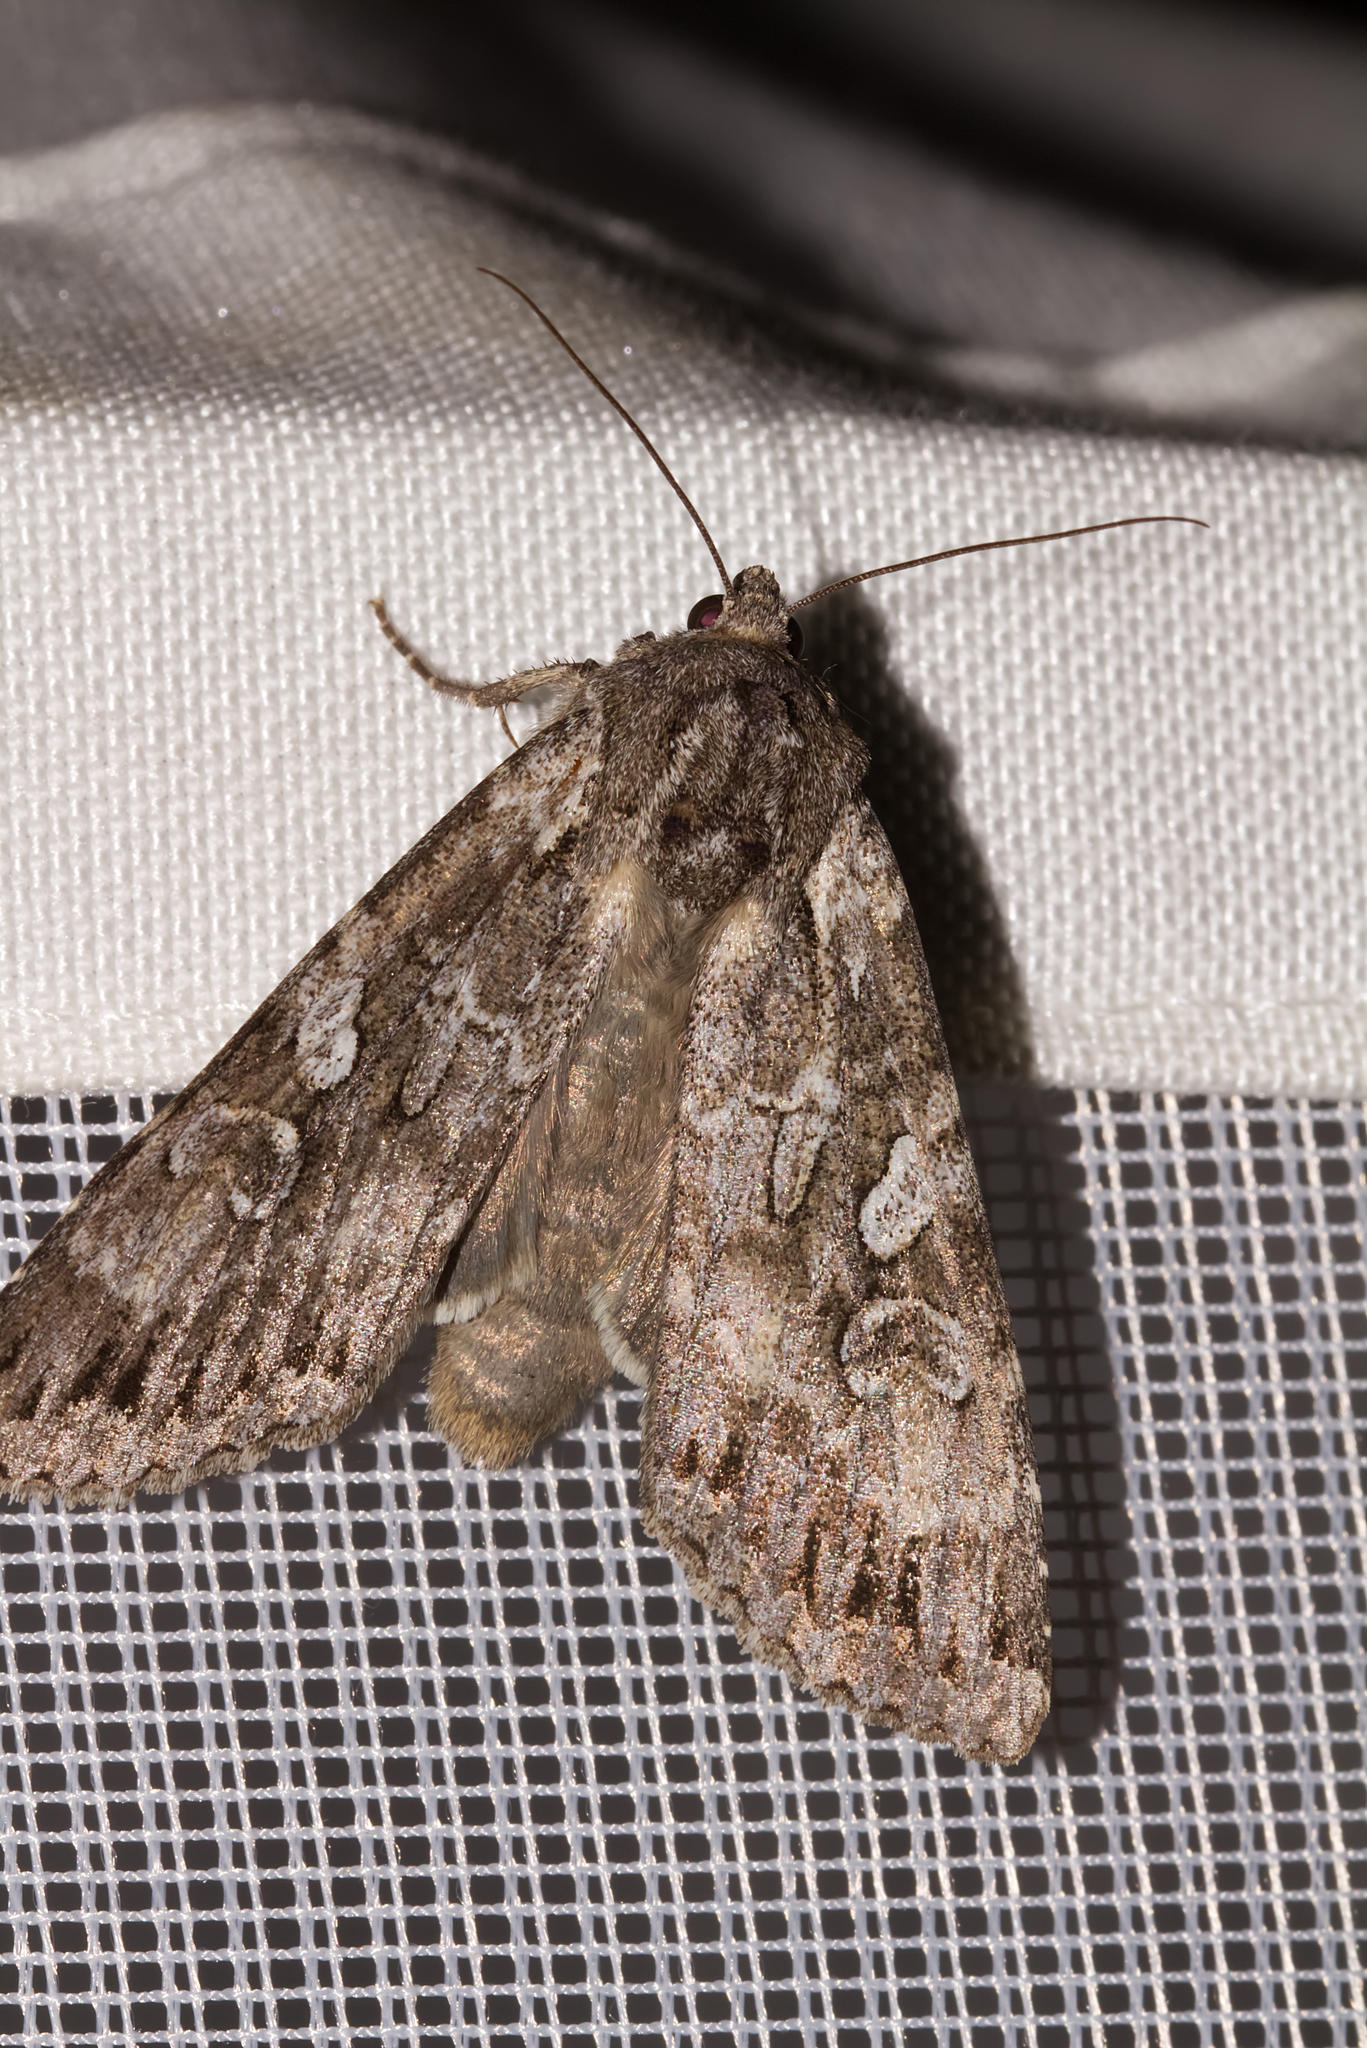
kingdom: Animalia
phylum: Arthropoda
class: Insecta
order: Lepidoptera
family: Noctuidae
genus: Eurois
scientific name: Eurois occulta
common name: Great brocade
